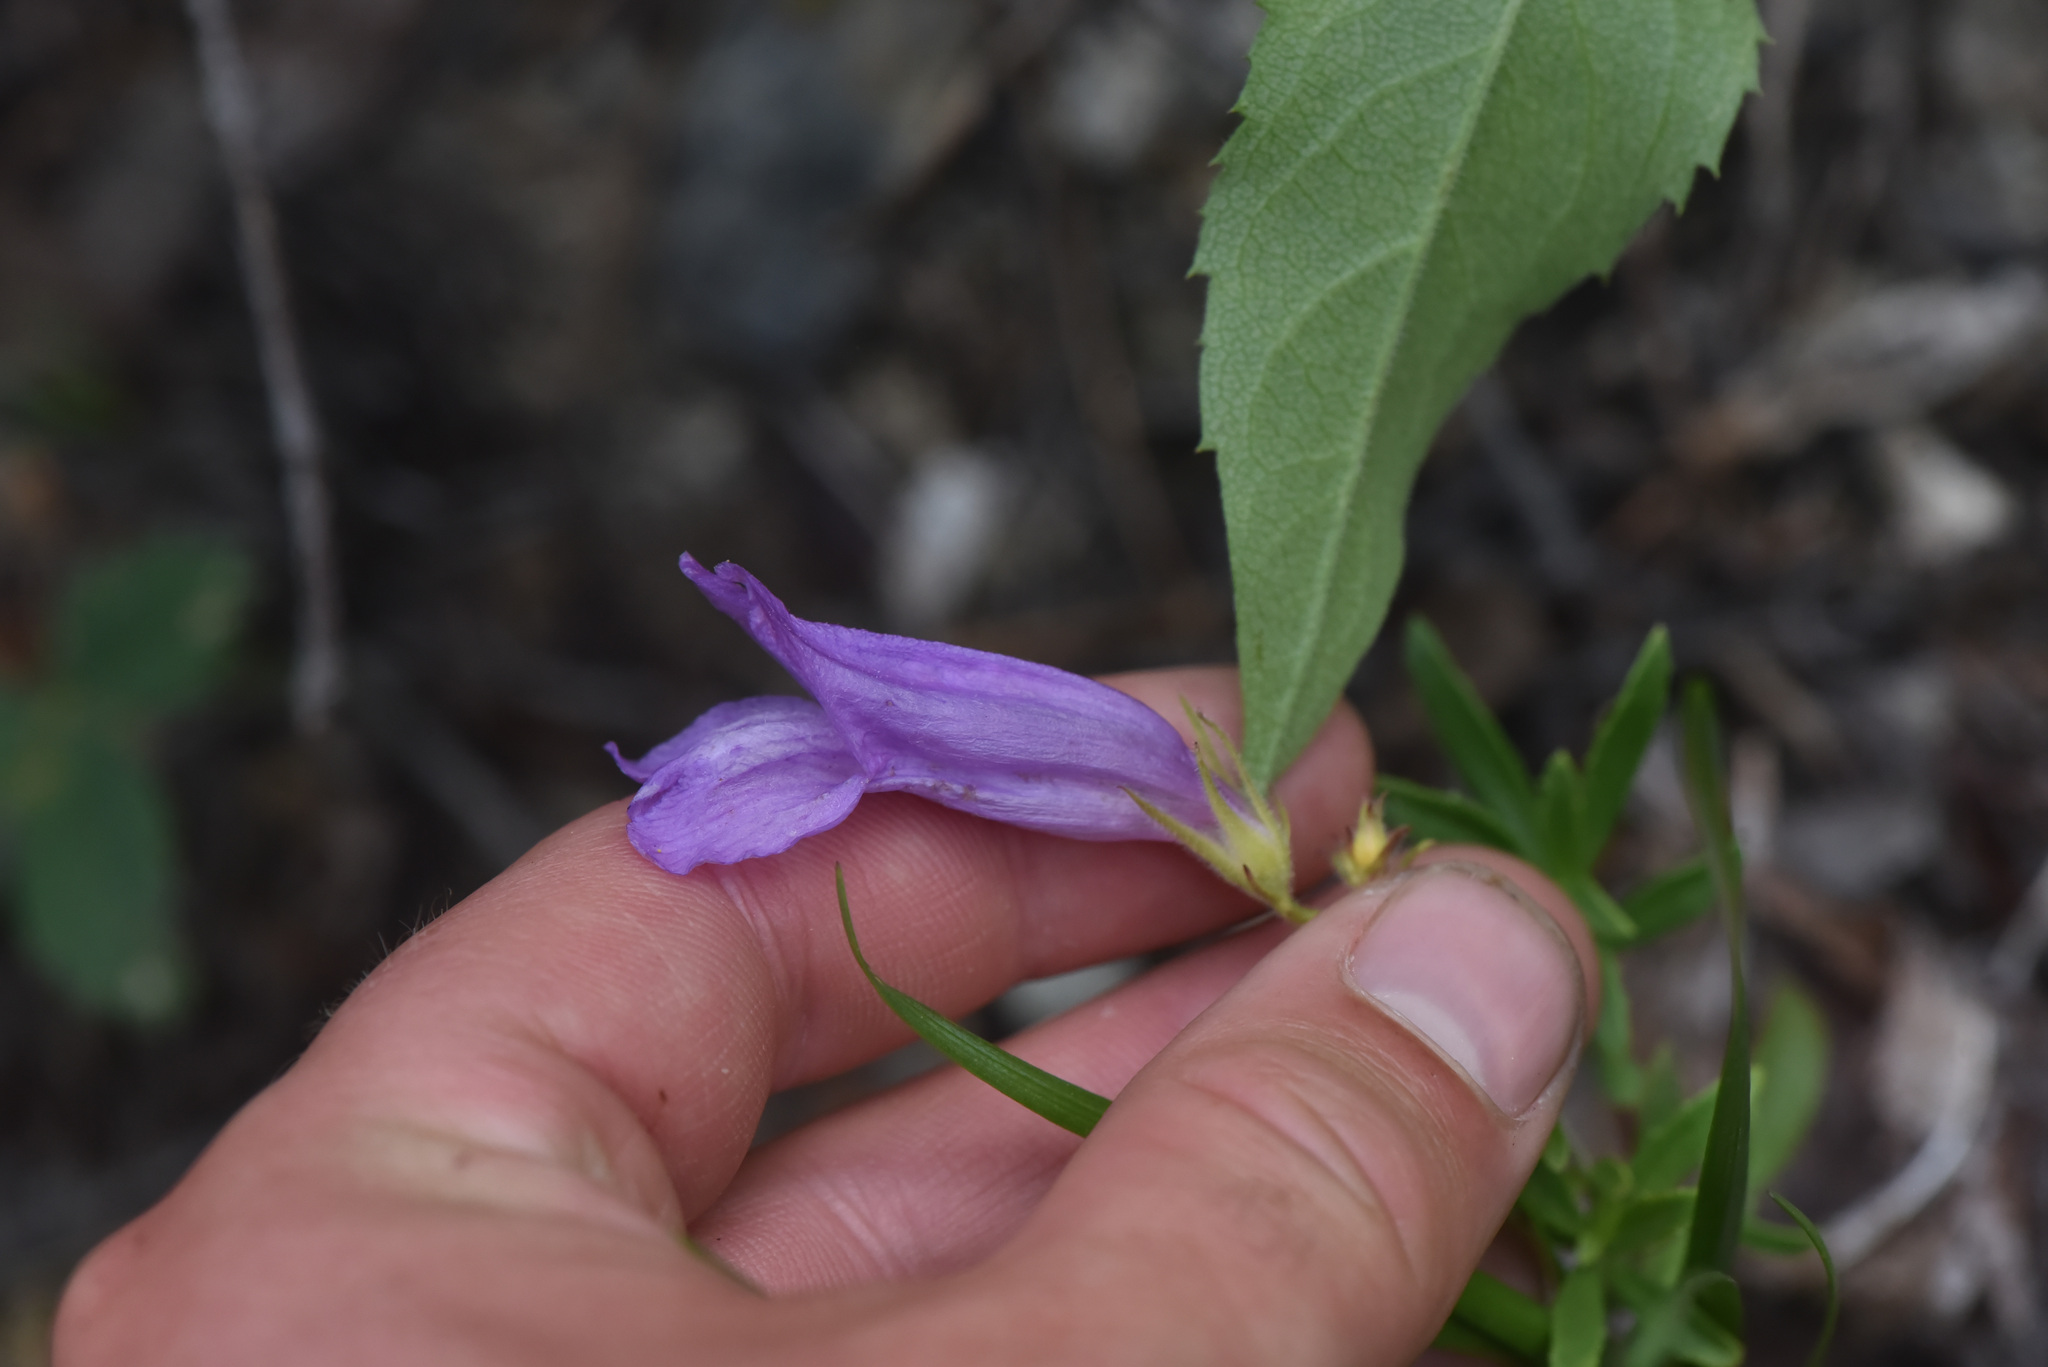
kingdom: Plantae
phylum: Tracheophyta
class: Magnoliopsida
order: Lamiales
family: Plantaginaceae
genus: Penstemon
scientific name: Penstemon fruticosus
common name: Bush penstemon
